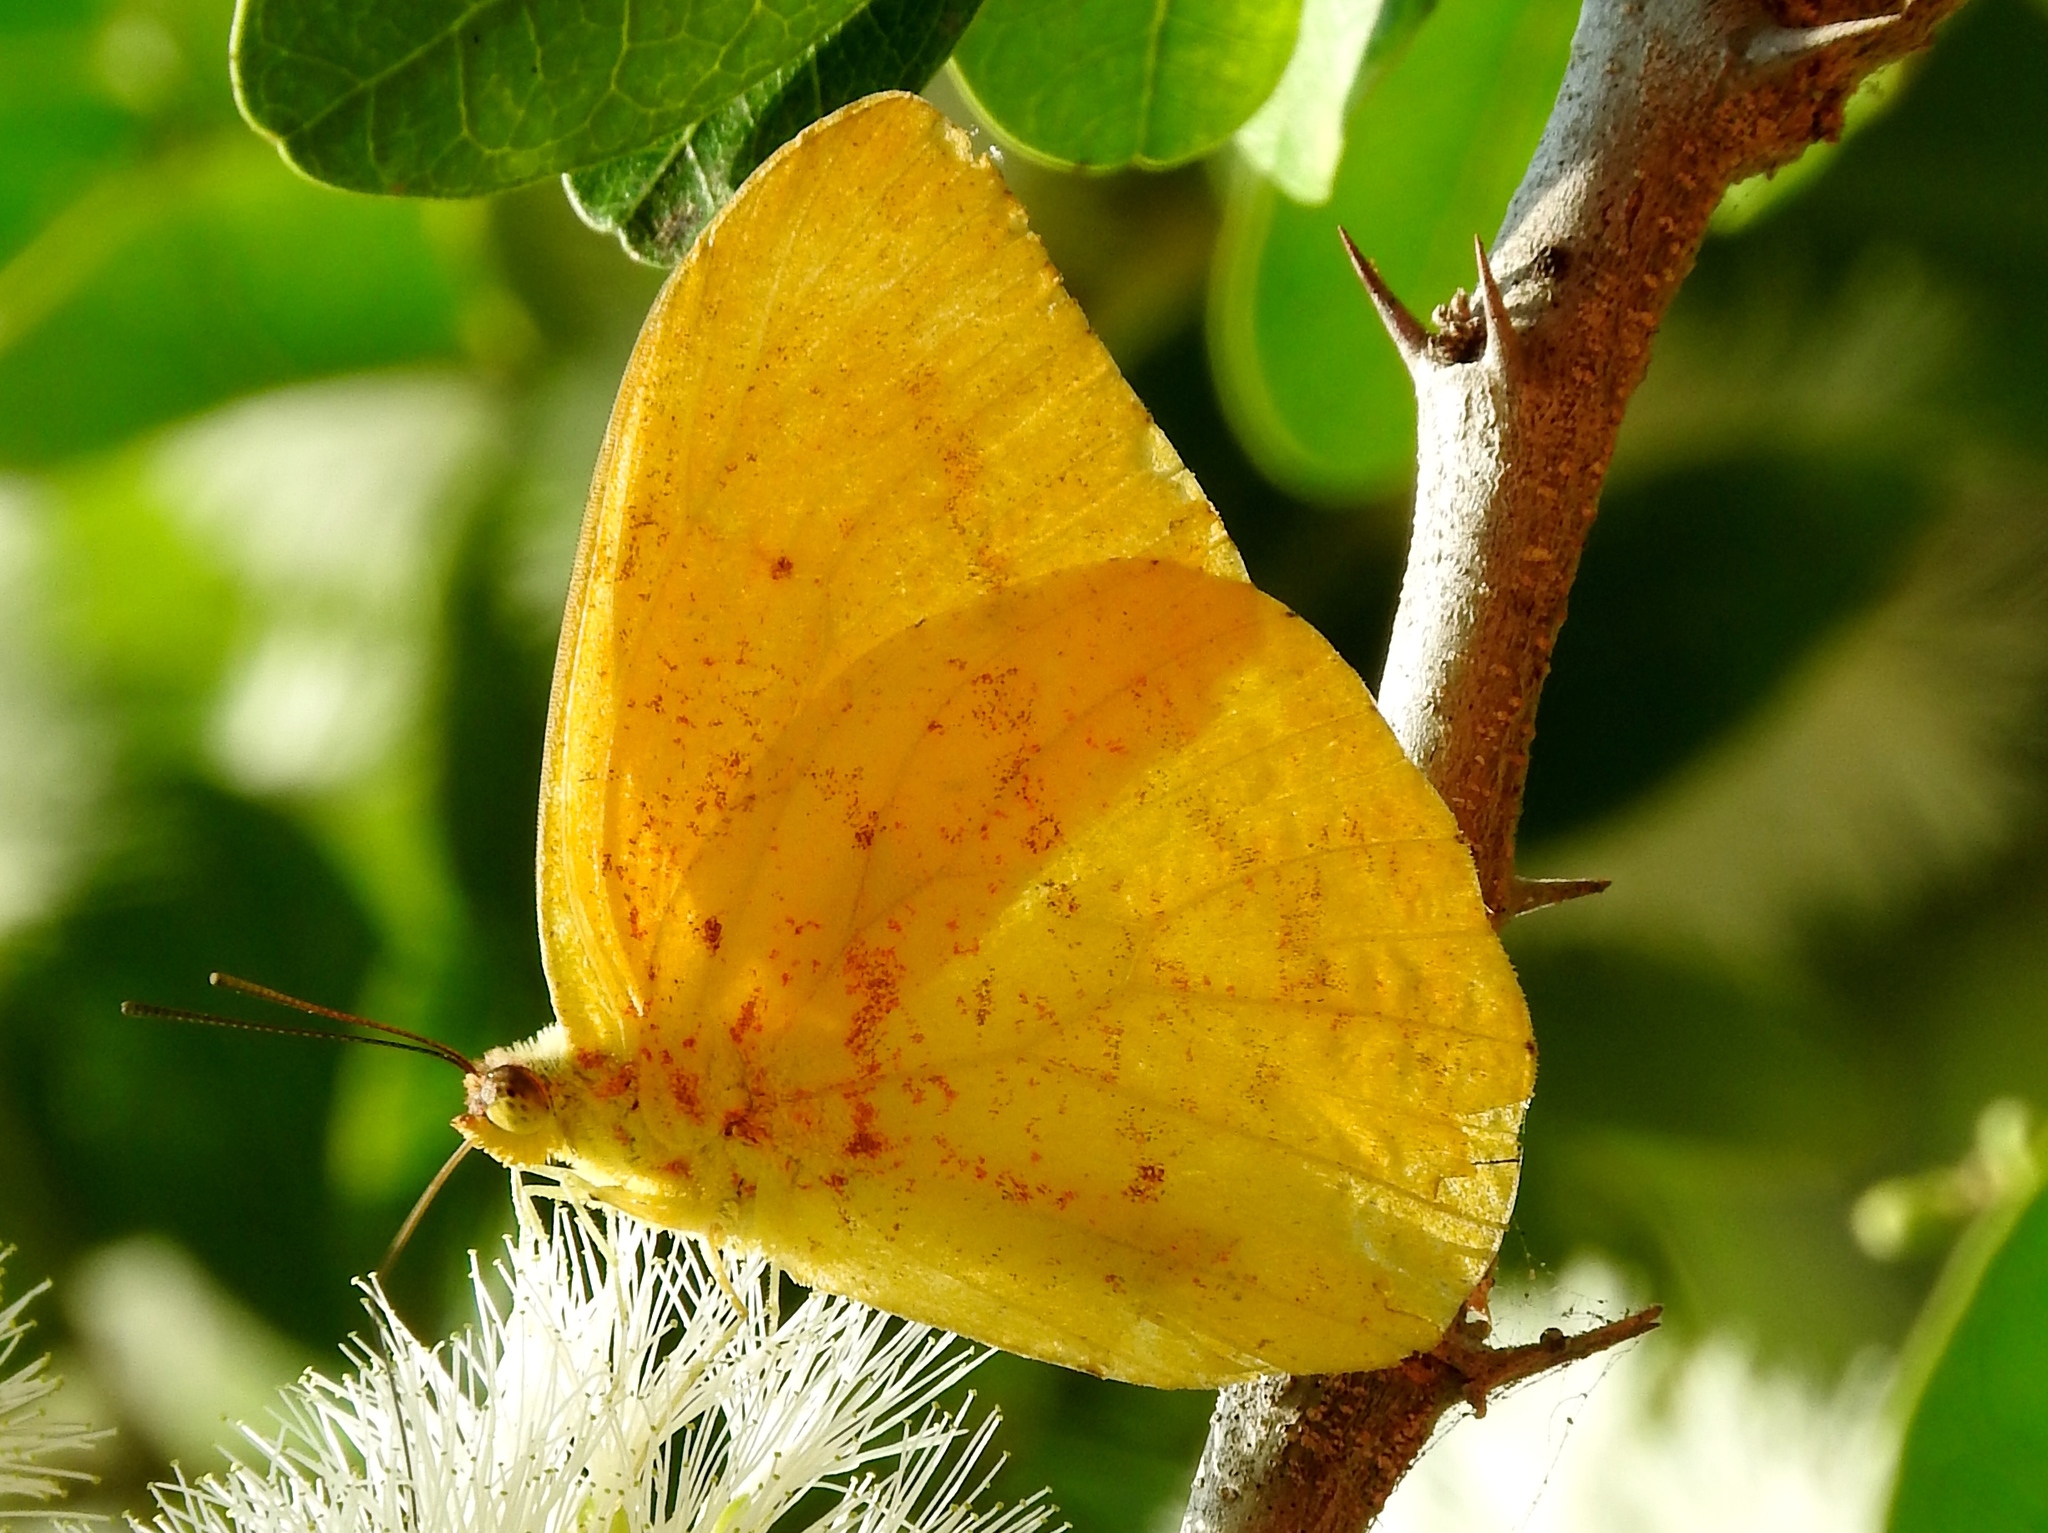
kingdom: Animalia
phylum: Arthropoda
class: Insecta
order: Lepidoptera
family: Pieridae
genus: Phoebis
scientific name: Phoebis agarithe
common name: Large orange sulphur
